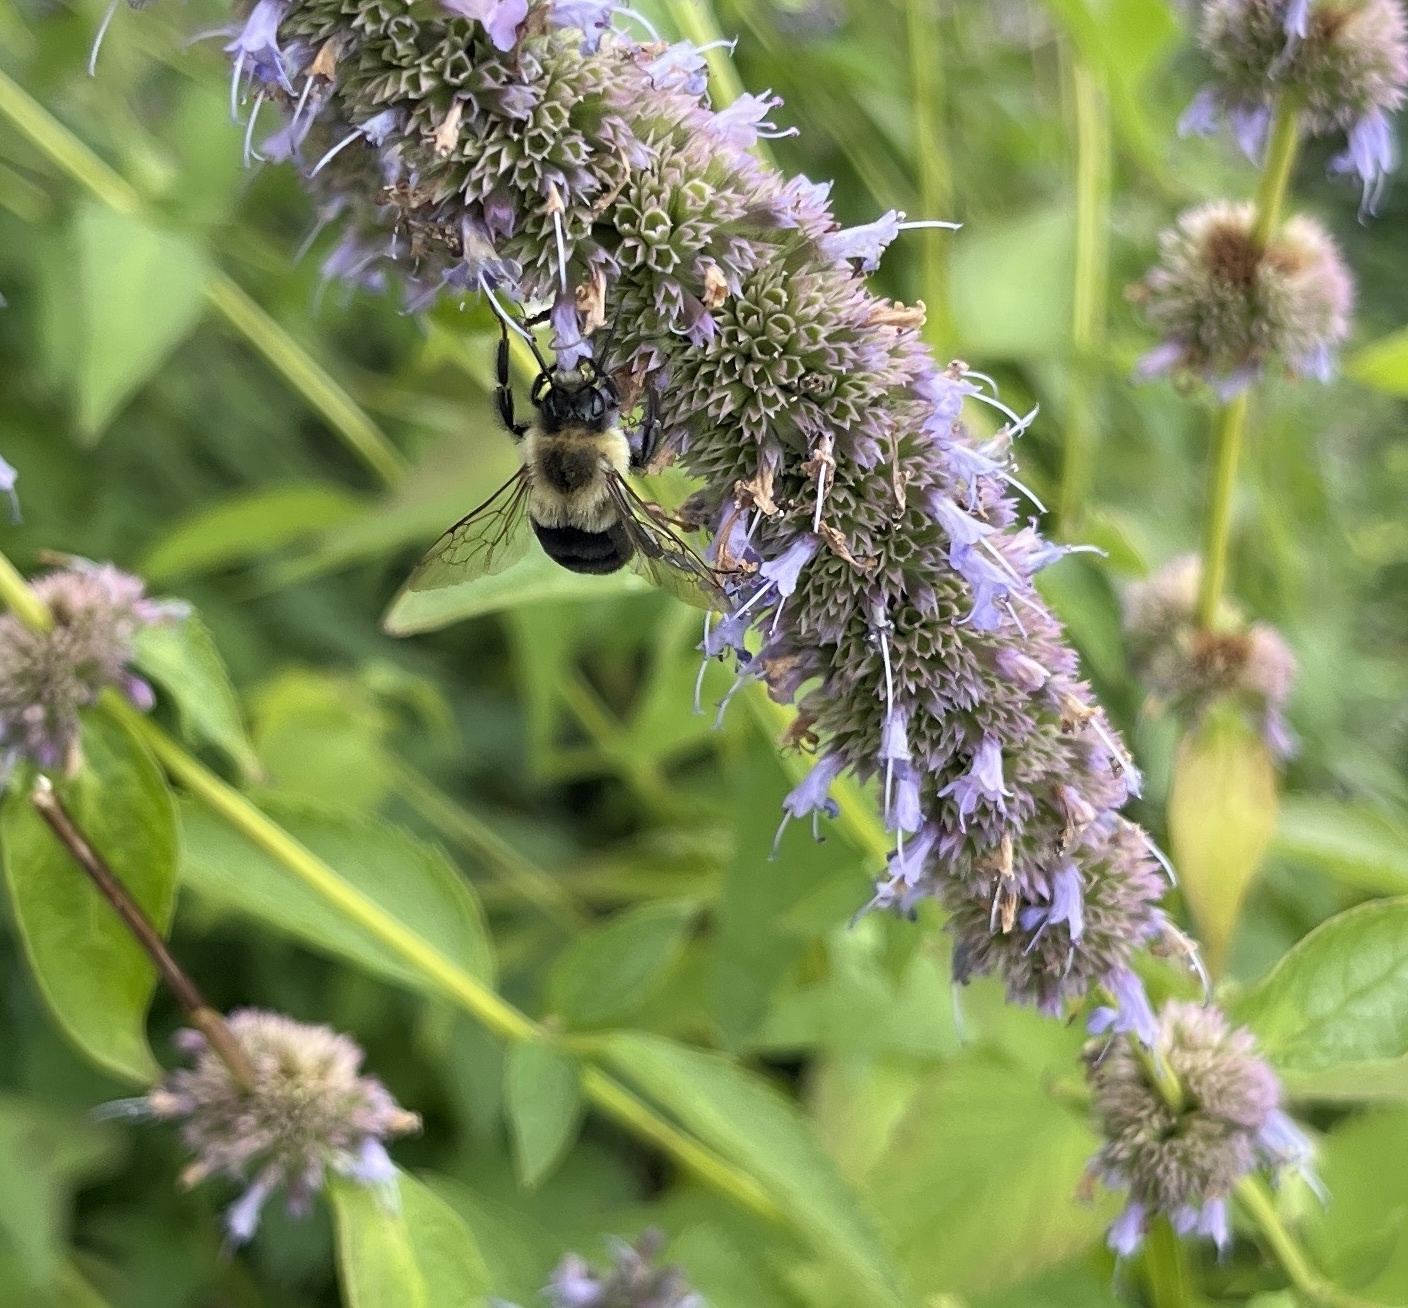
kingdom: Animalia
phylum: Arthropoda
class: Insecta
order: Hymenoptera
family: Apidae
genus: Bombus
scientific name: Bombus impatiens
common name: Common eastern bumble bee
